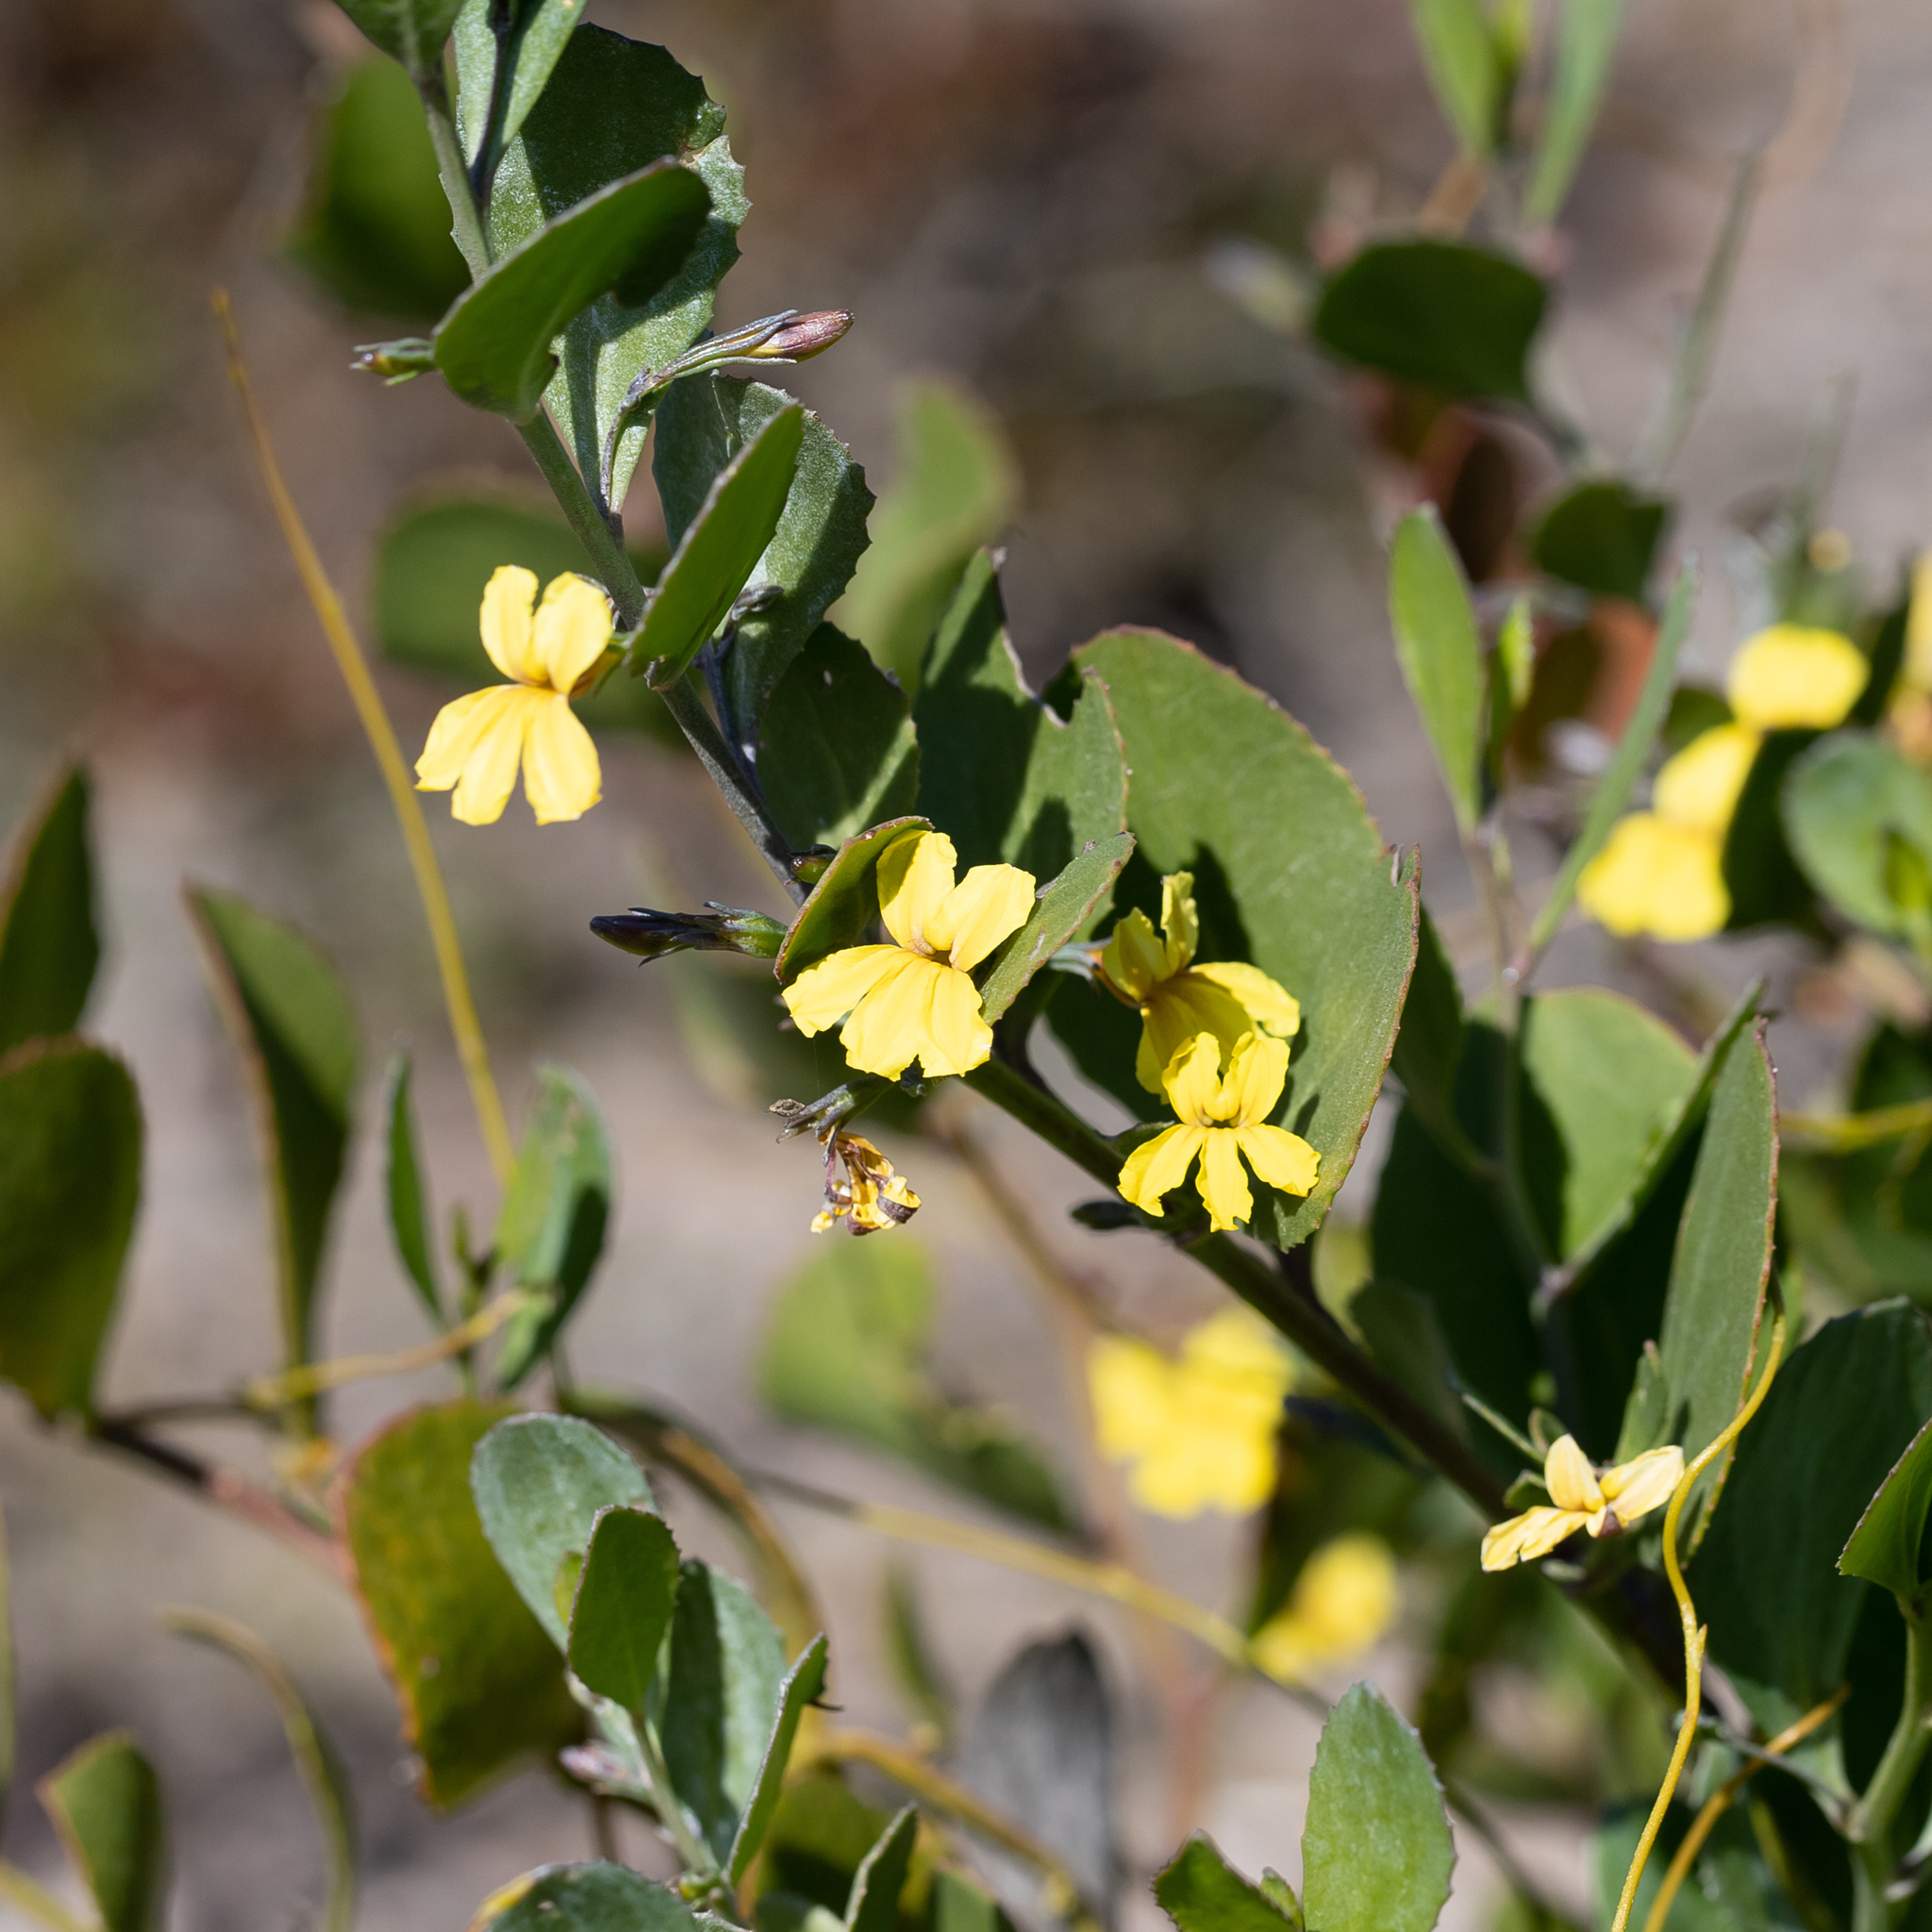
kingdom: Plantae
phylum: Tracheophyta
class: Magnoliopsida
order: Asterales
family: Goodeniaceae
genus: Goodenia
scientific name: Goodenia varia
